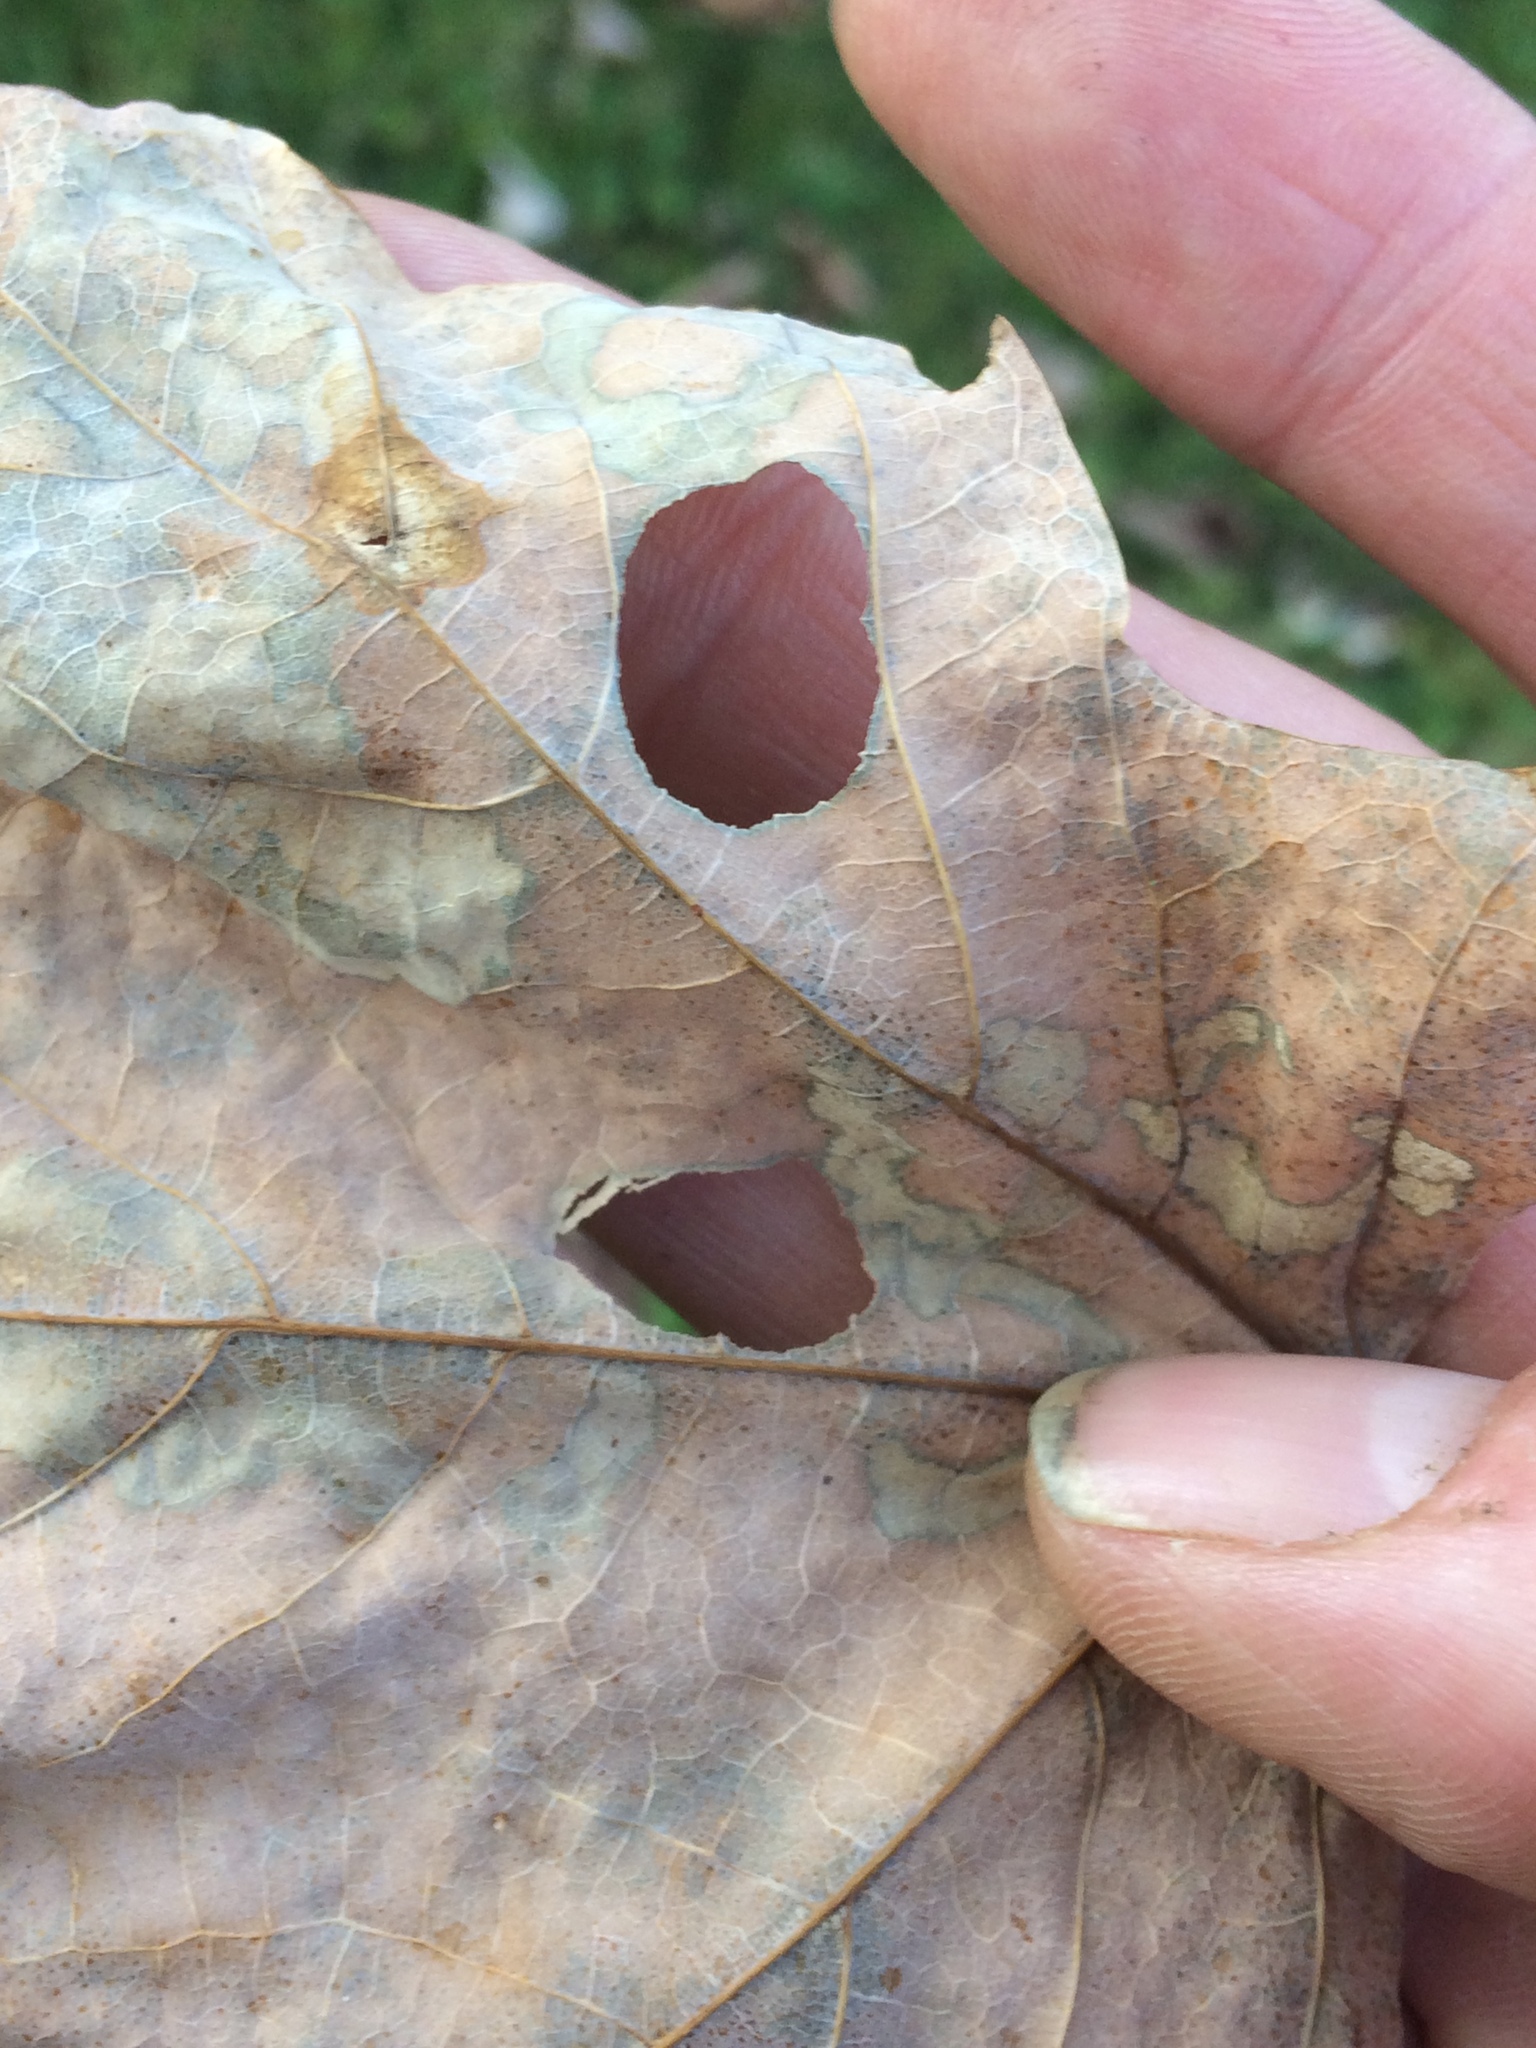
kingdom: Animalia
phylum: Arthropoda
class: Insecta
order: Lepidoptera
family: Incurvariidae
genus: Paraclemensia
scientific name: Paraclemensia acerifoliella
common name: Maple leafcutter
